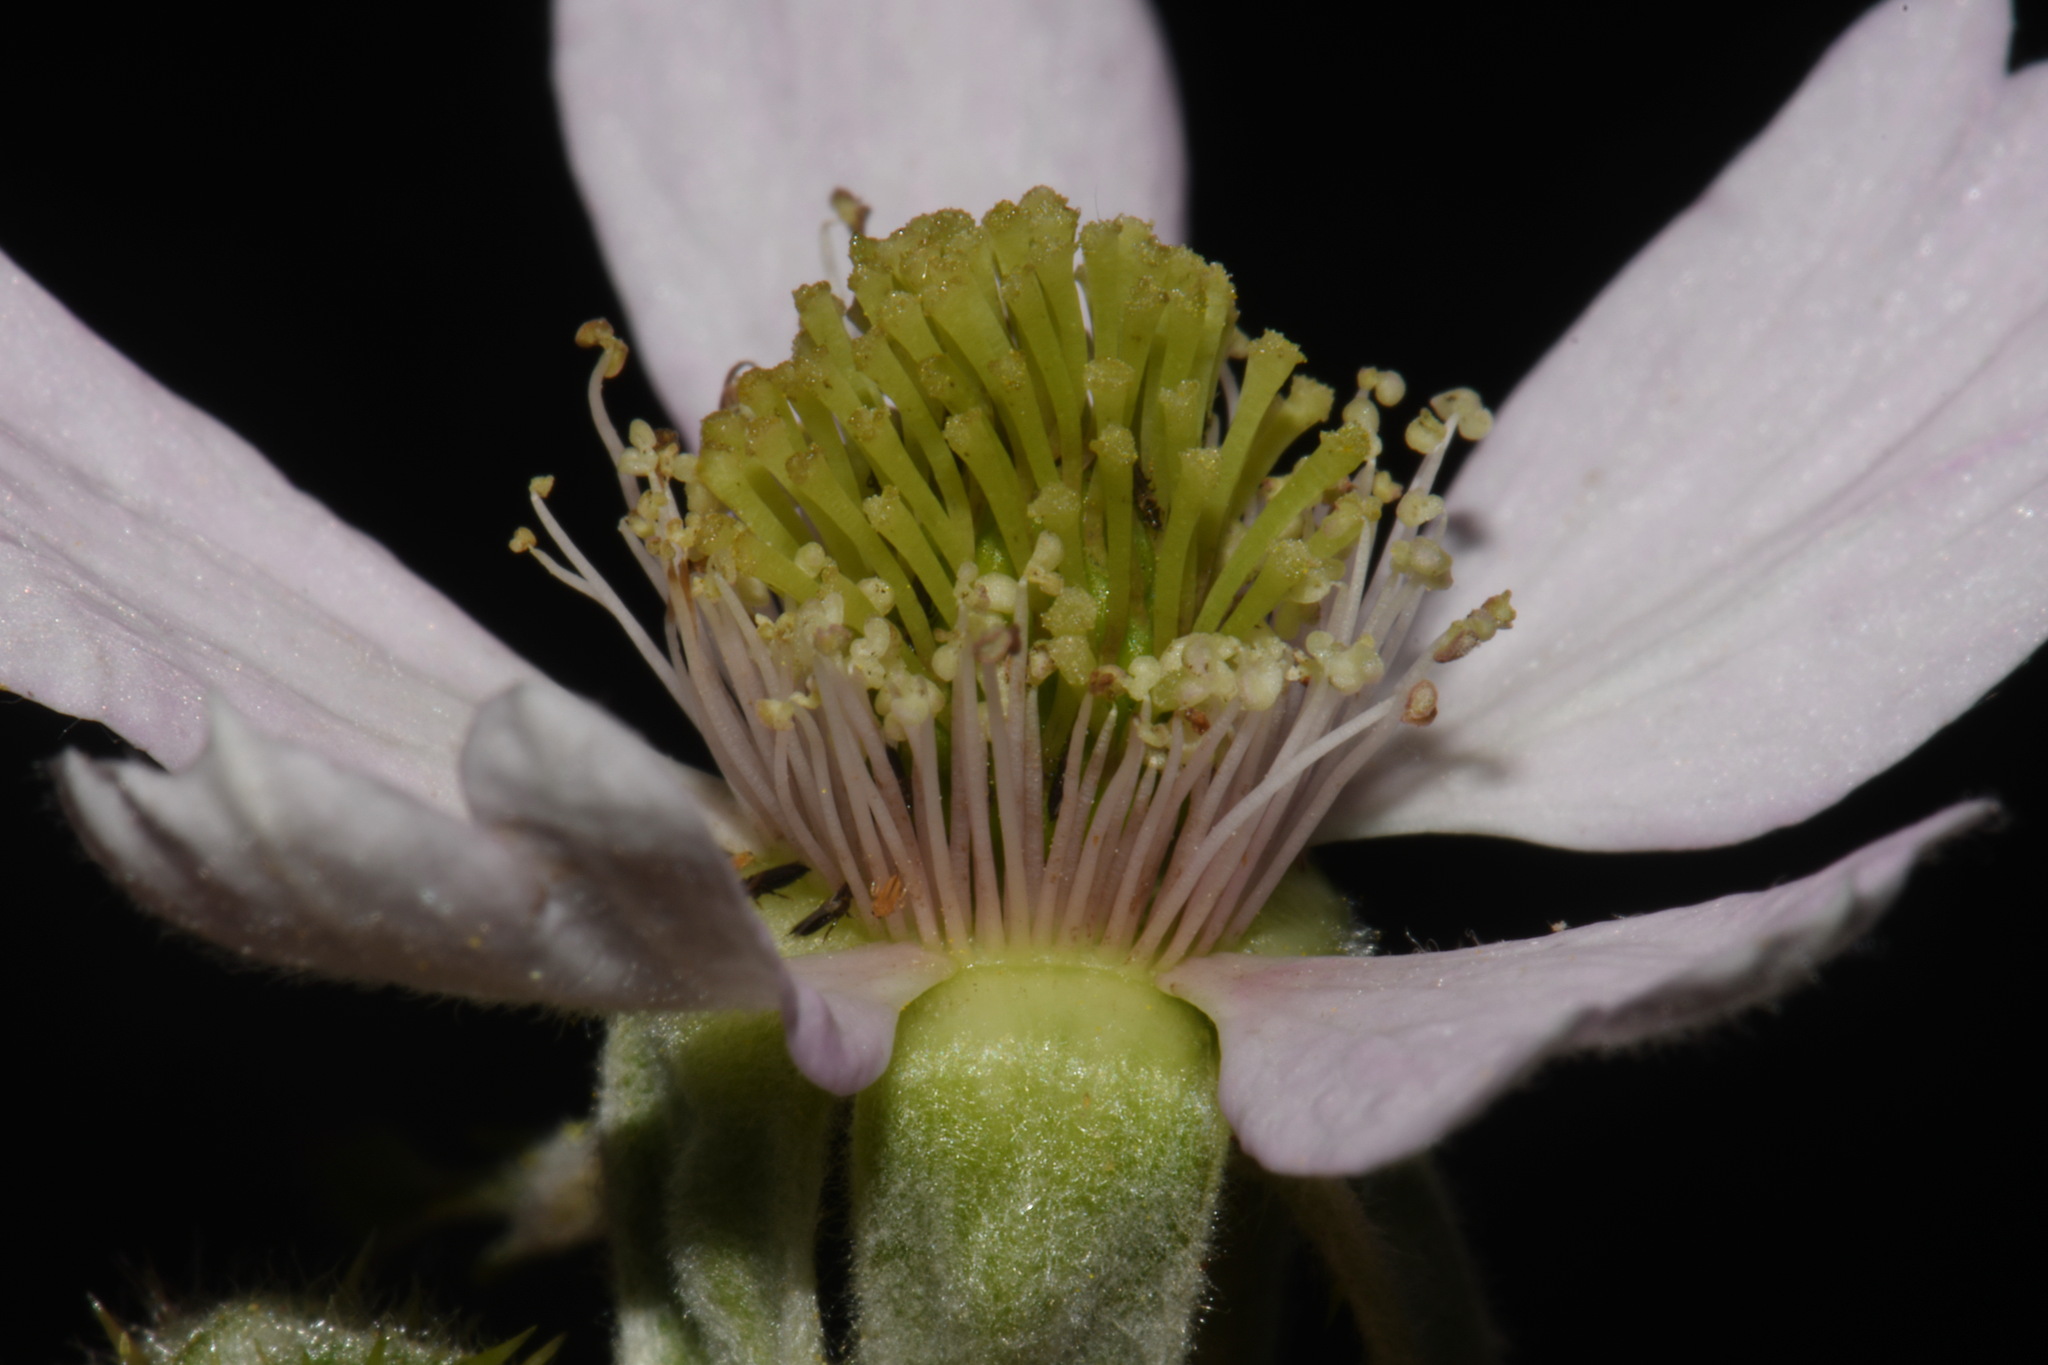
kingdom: Plantae
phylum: Tracheophyta
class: Magnoliopsida
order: Rosales
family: Rosaceae
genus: Rubus
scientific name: Rubus laciniatus
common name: Evergreen blackberry
